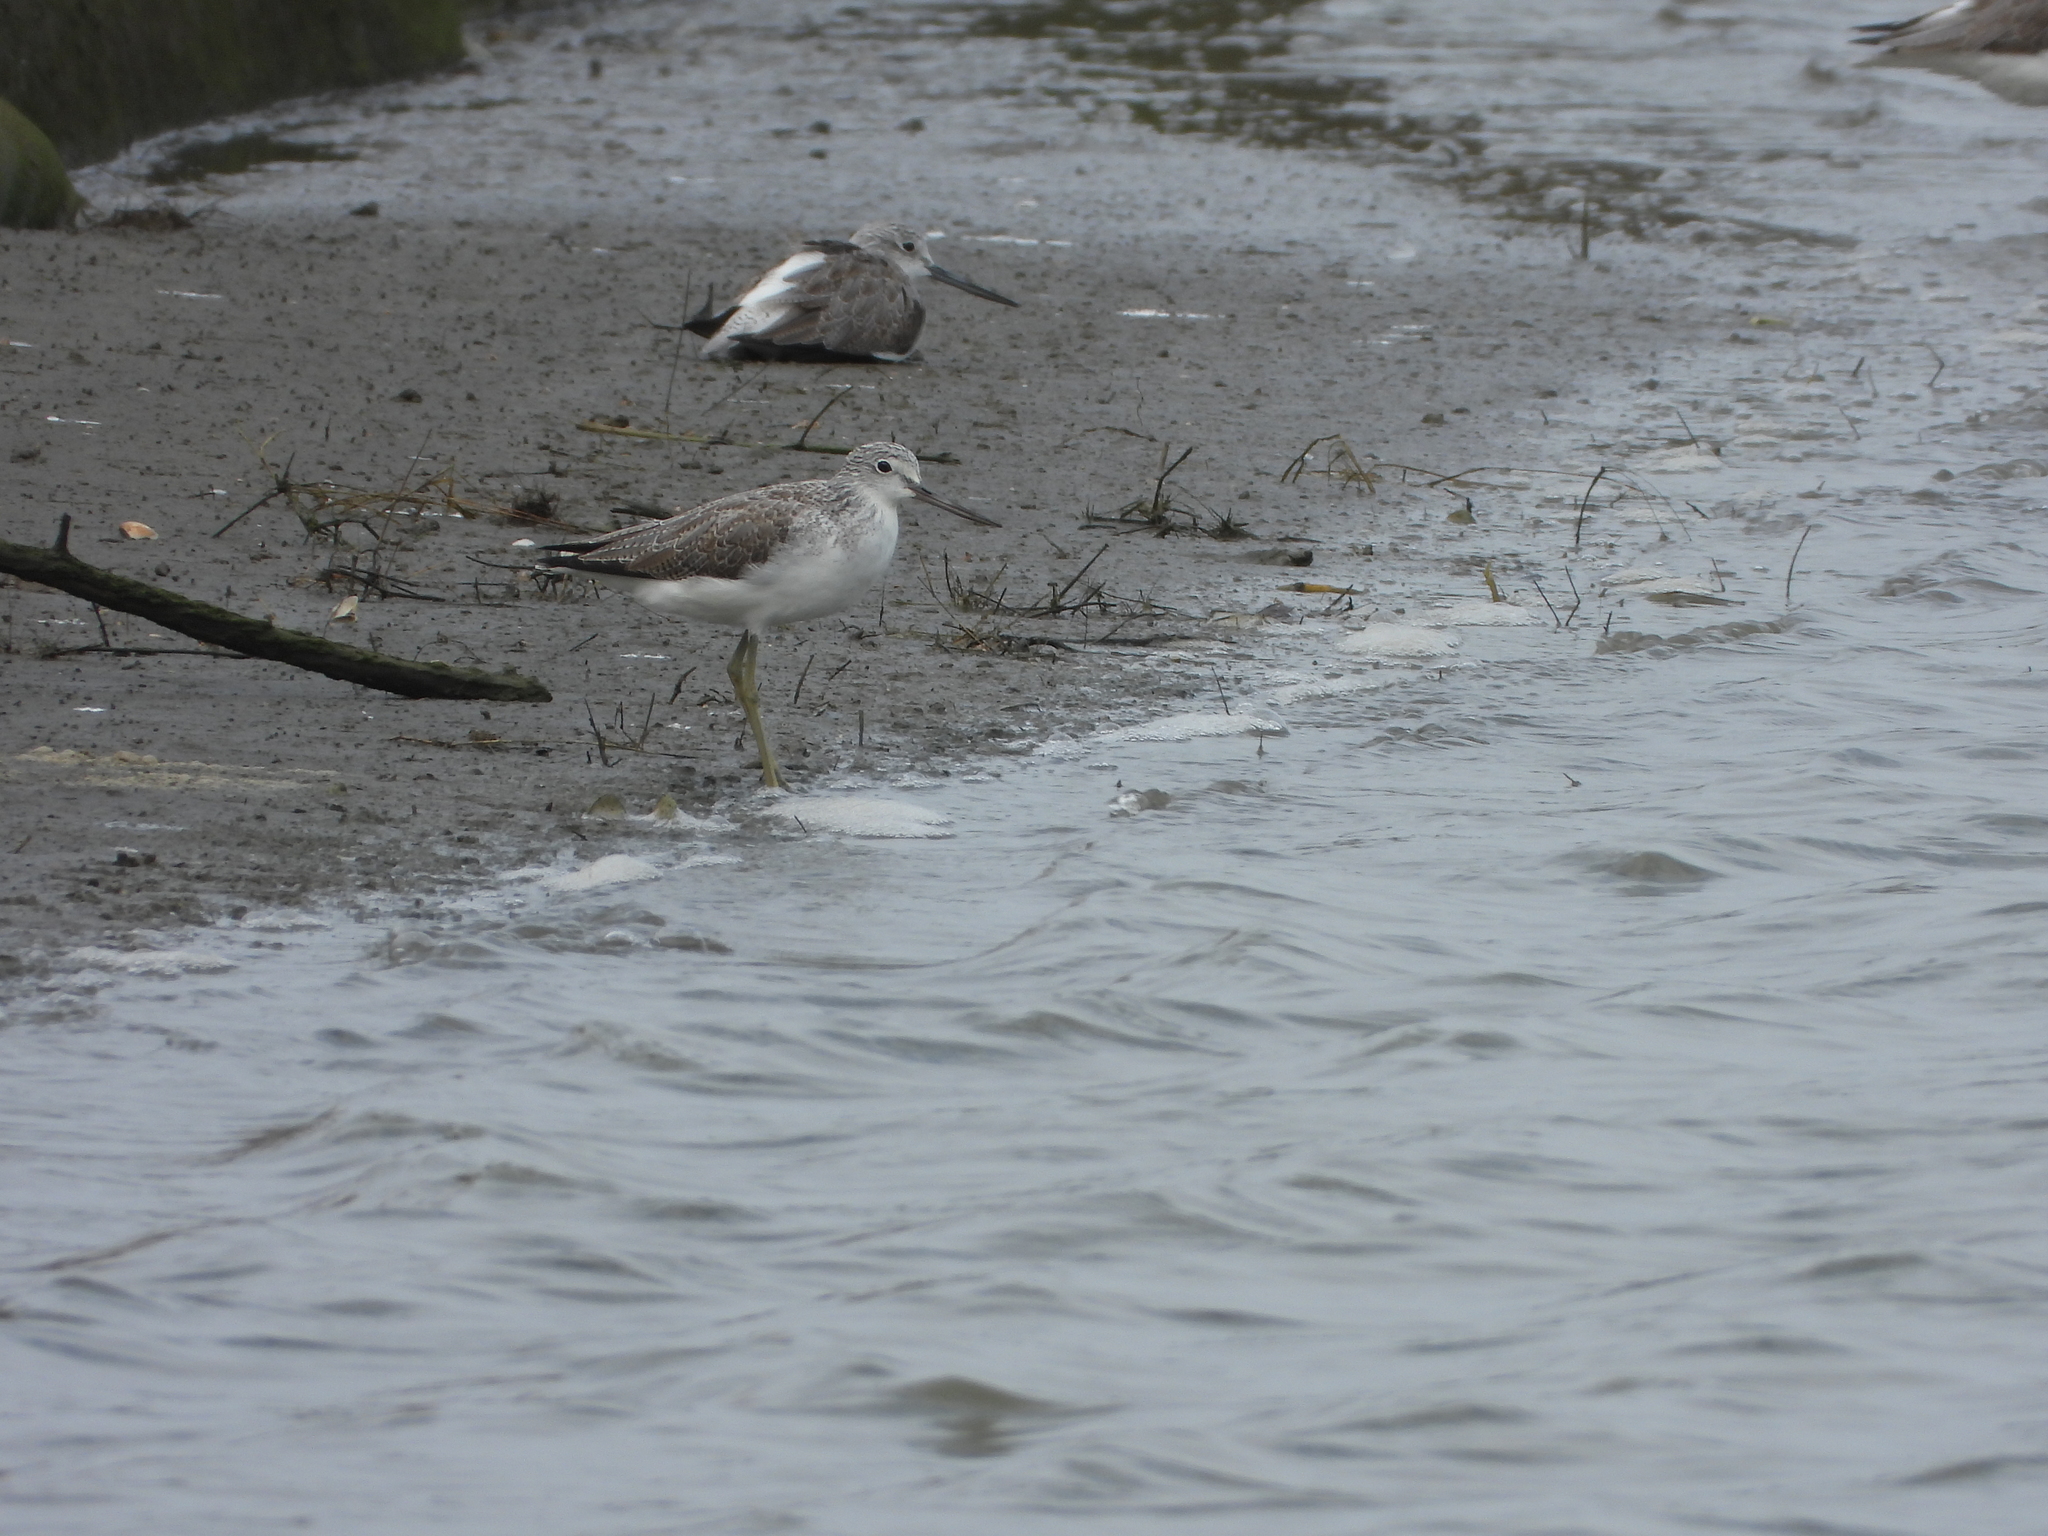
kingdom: Animalia
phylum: Chordata
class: Aves
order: Charadriiformes
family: Scolopacidae
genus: Tringa
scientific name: Tringa nebularia
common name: Common greenshank
